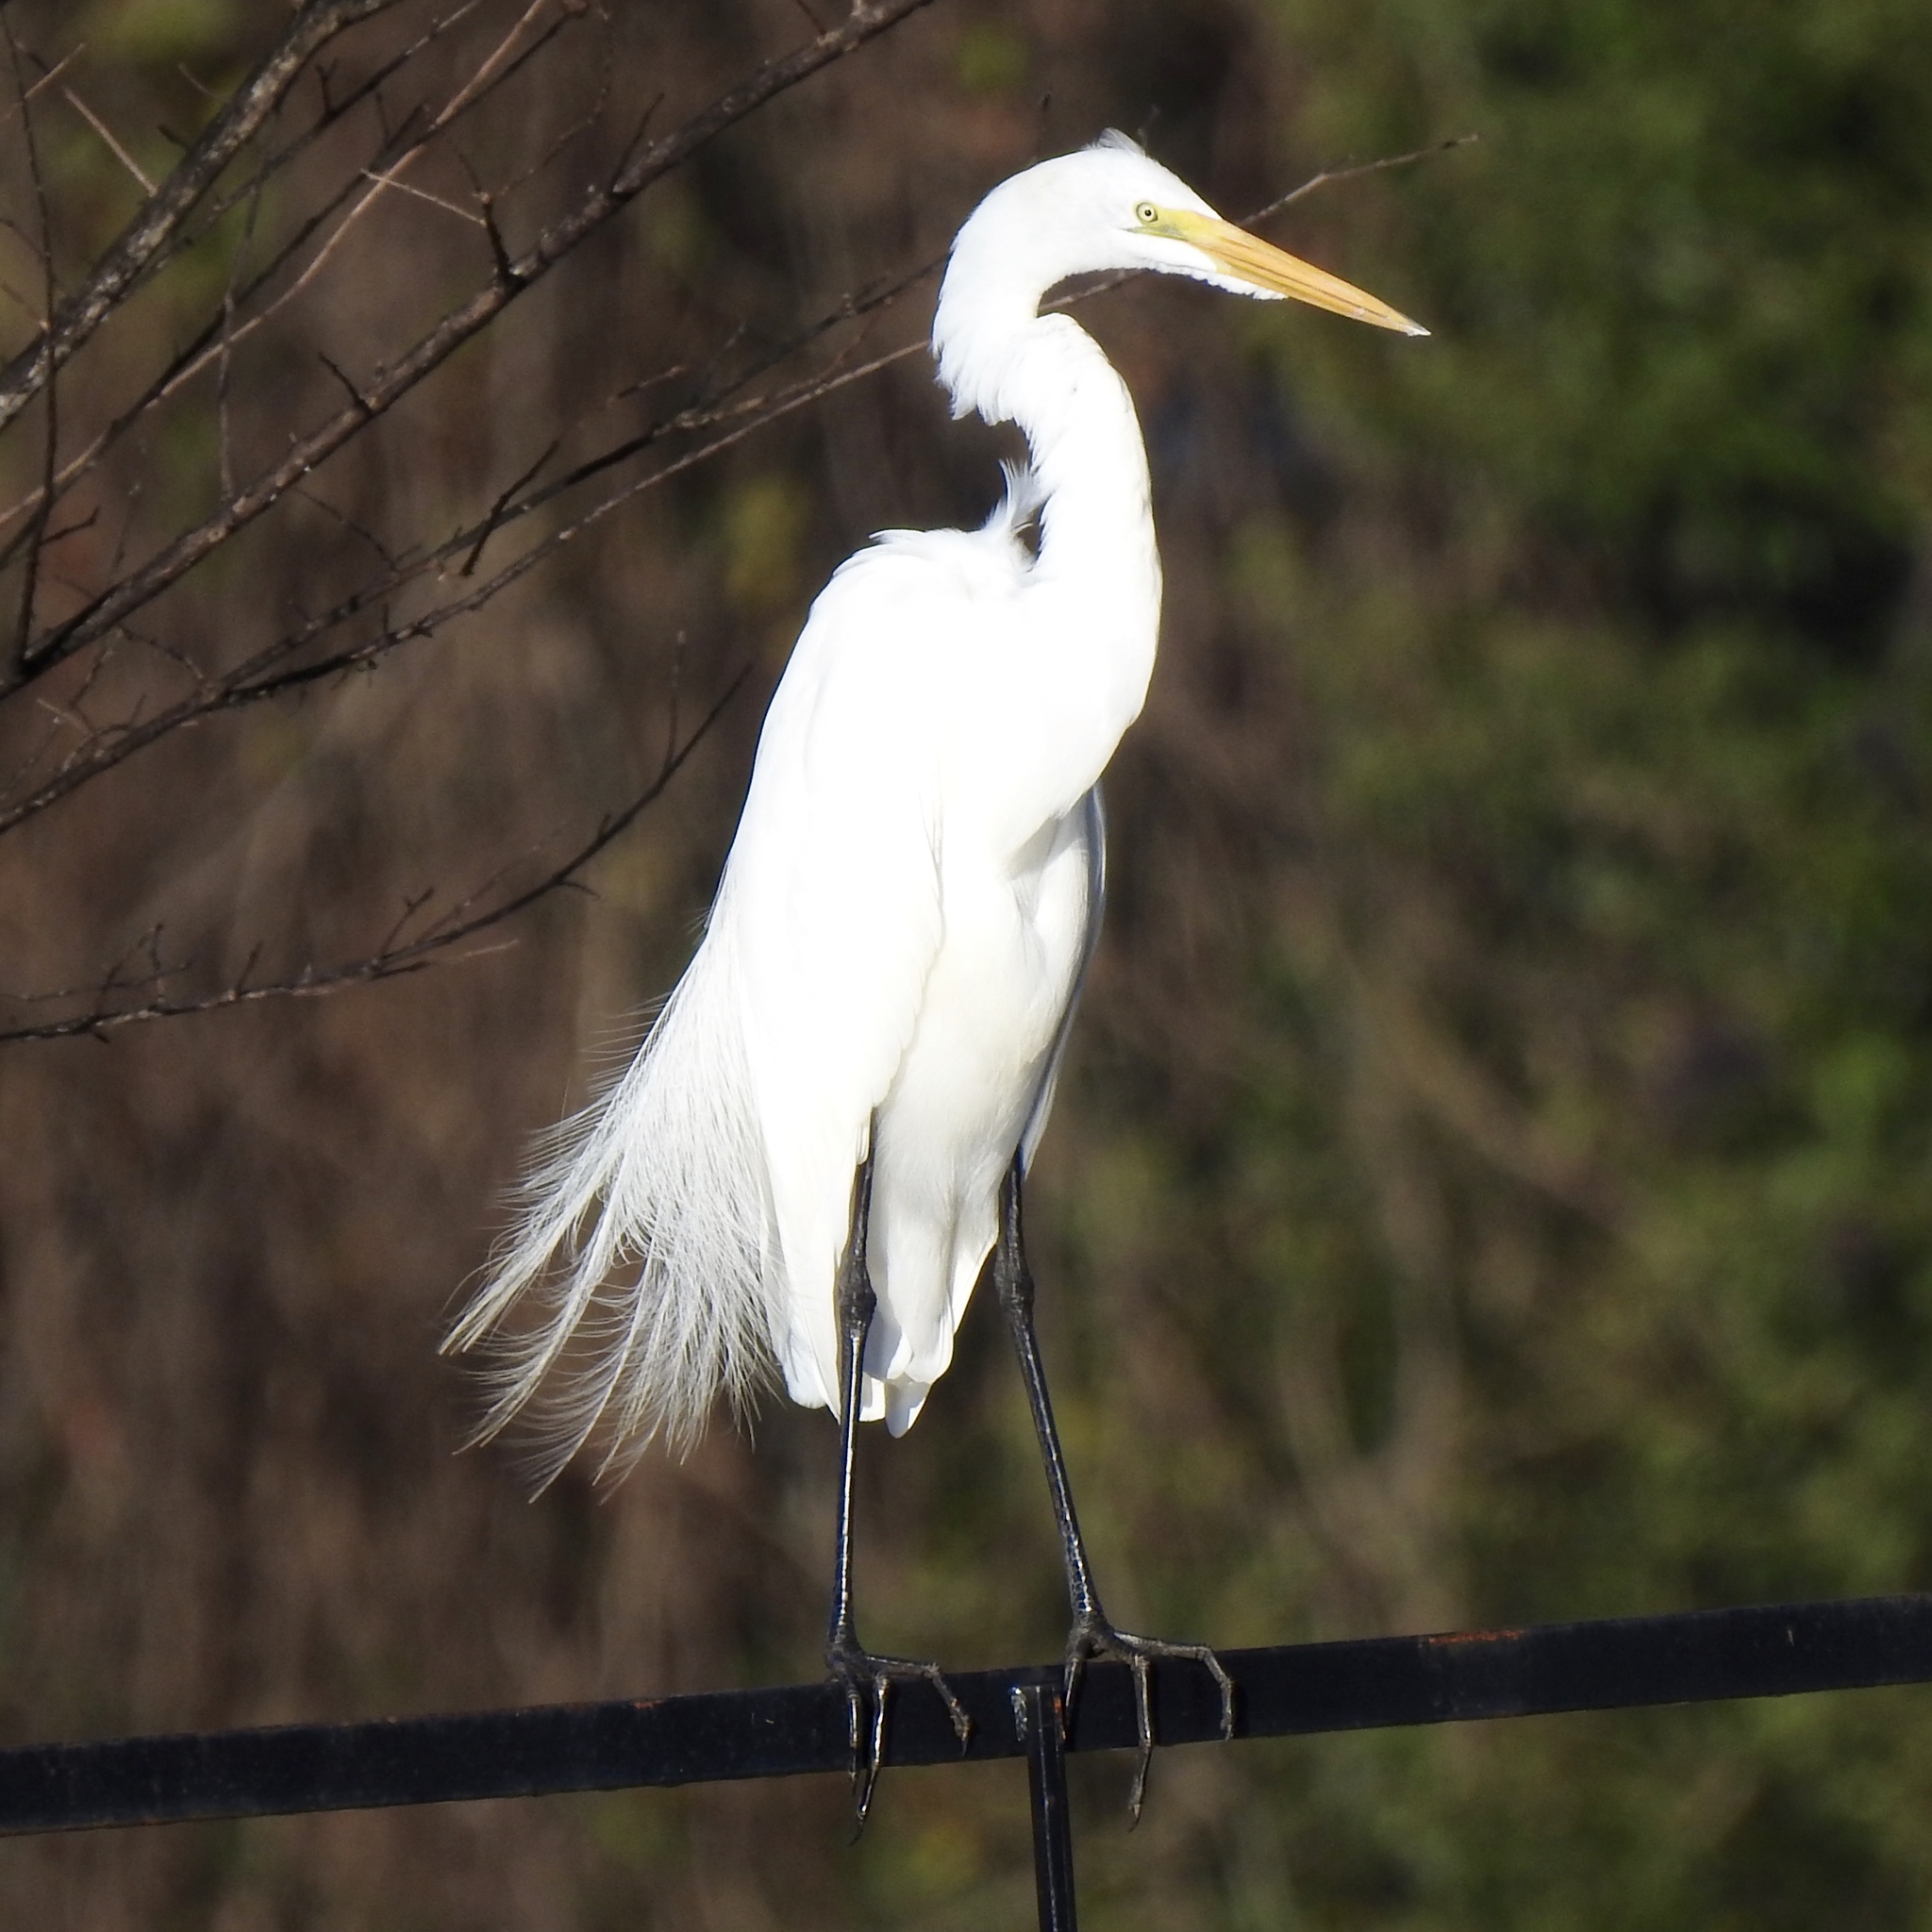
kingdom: Animalia
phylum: Chordata
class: Aves
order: Pelecaniformes
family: Ardeidae
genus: Ardea
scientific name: Ardea alba
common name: Great egret
